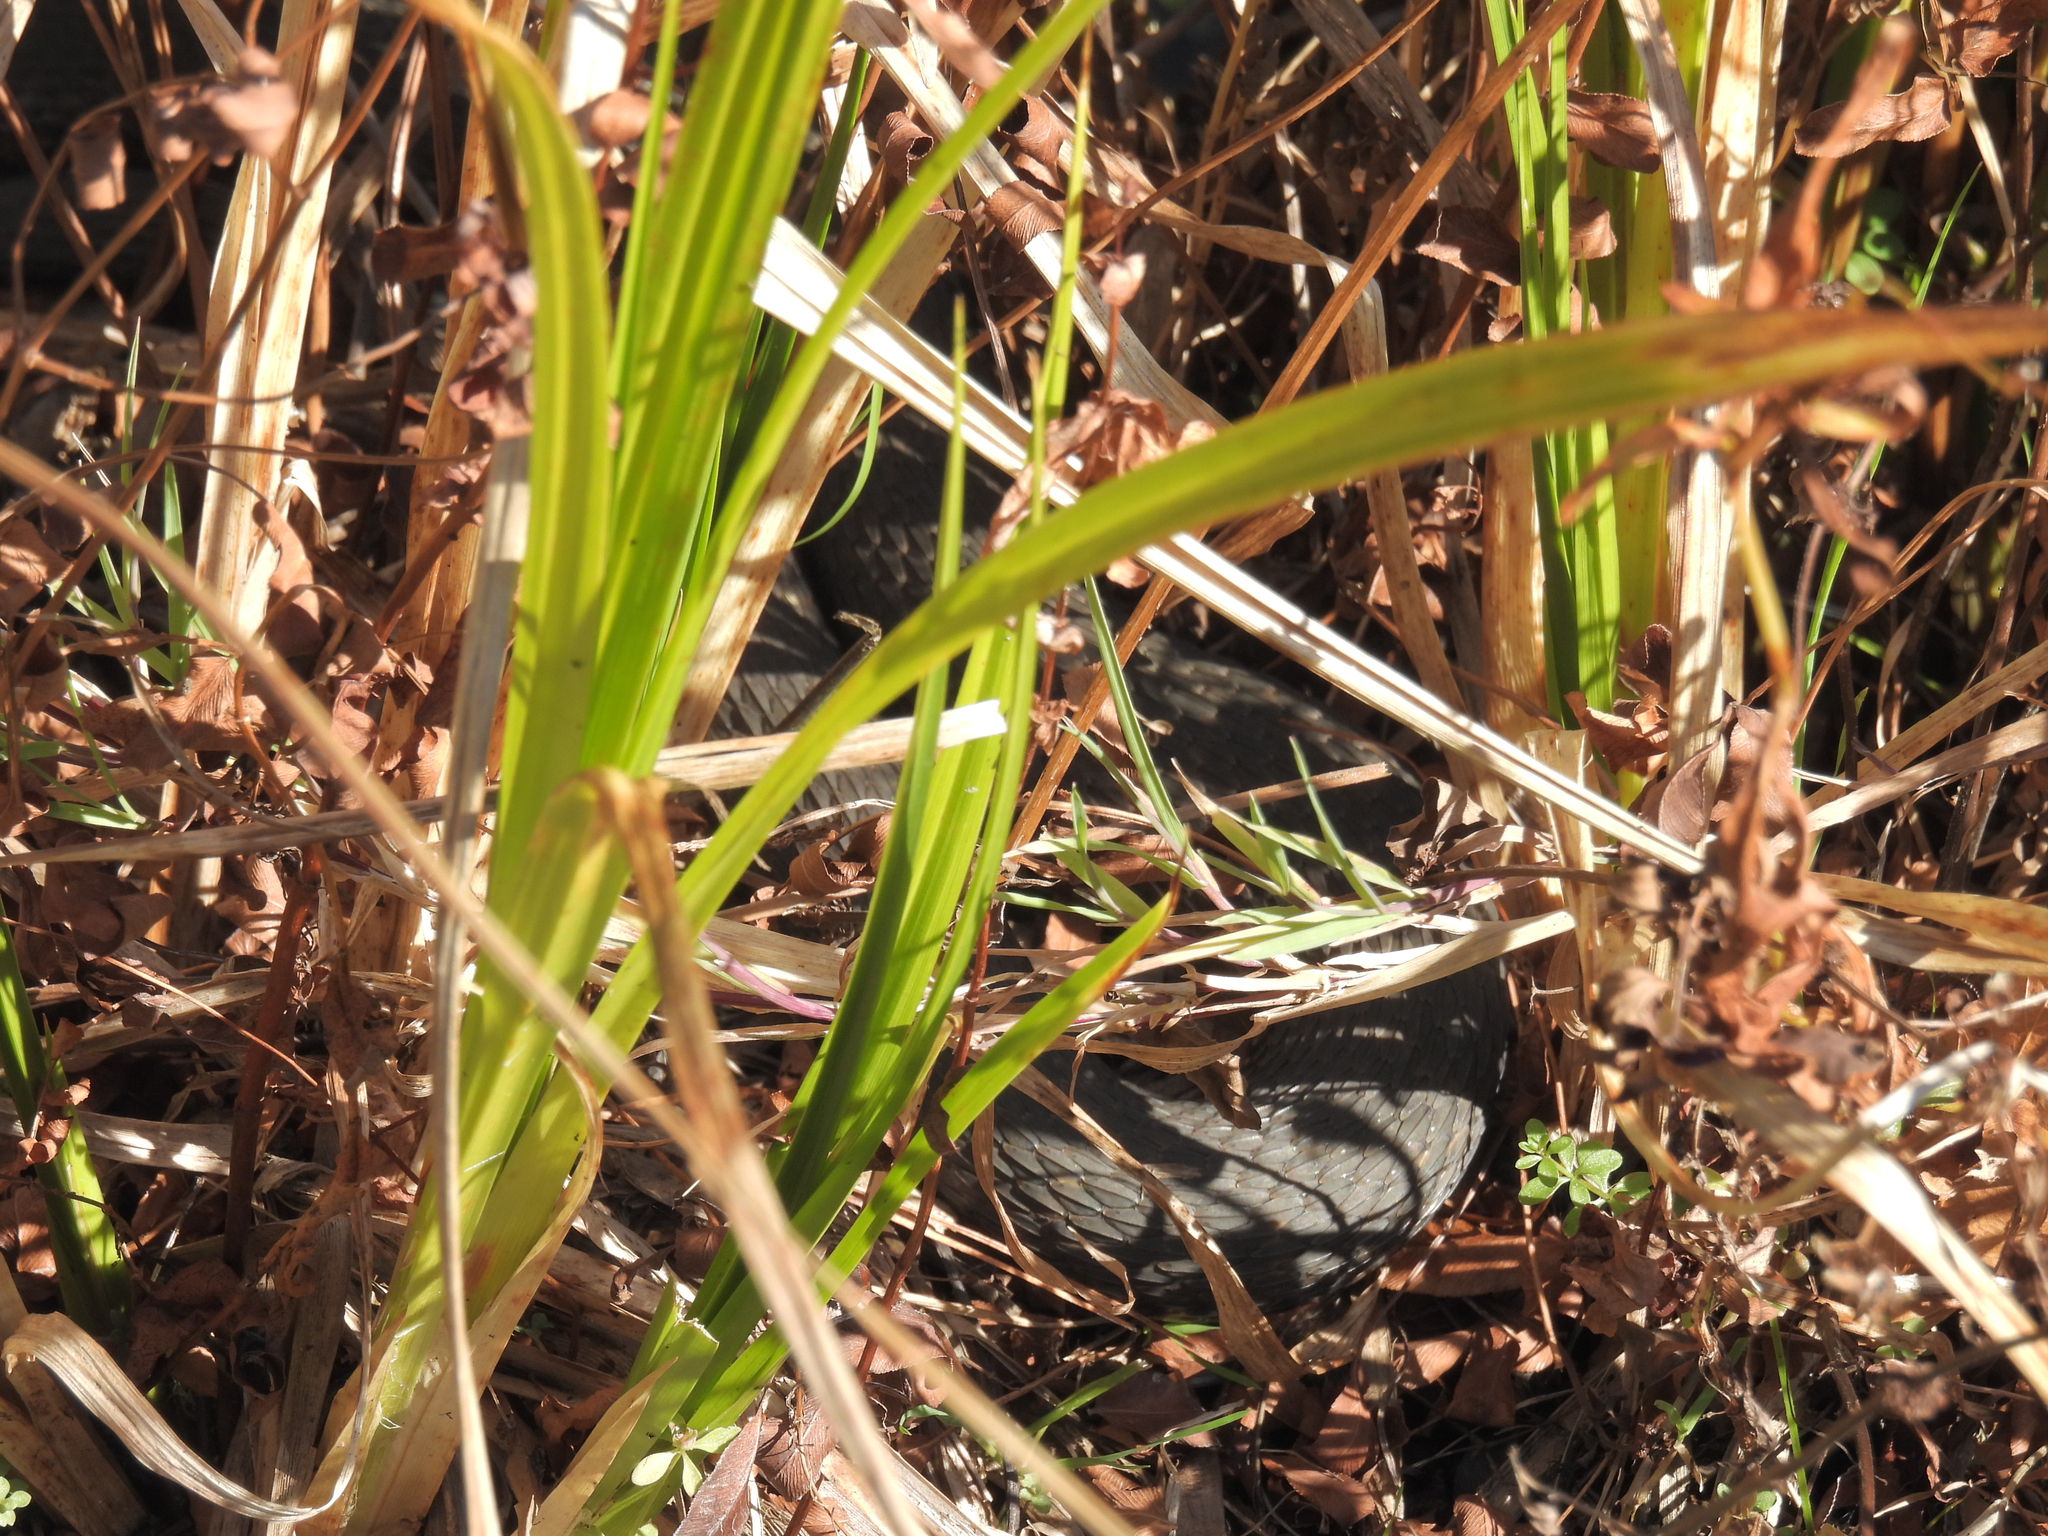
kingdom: Animalia
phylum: Chordata
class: Squamata
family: Colubridae
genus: Nerodia
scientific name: Nerodia sipedon
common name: Northern water snake
